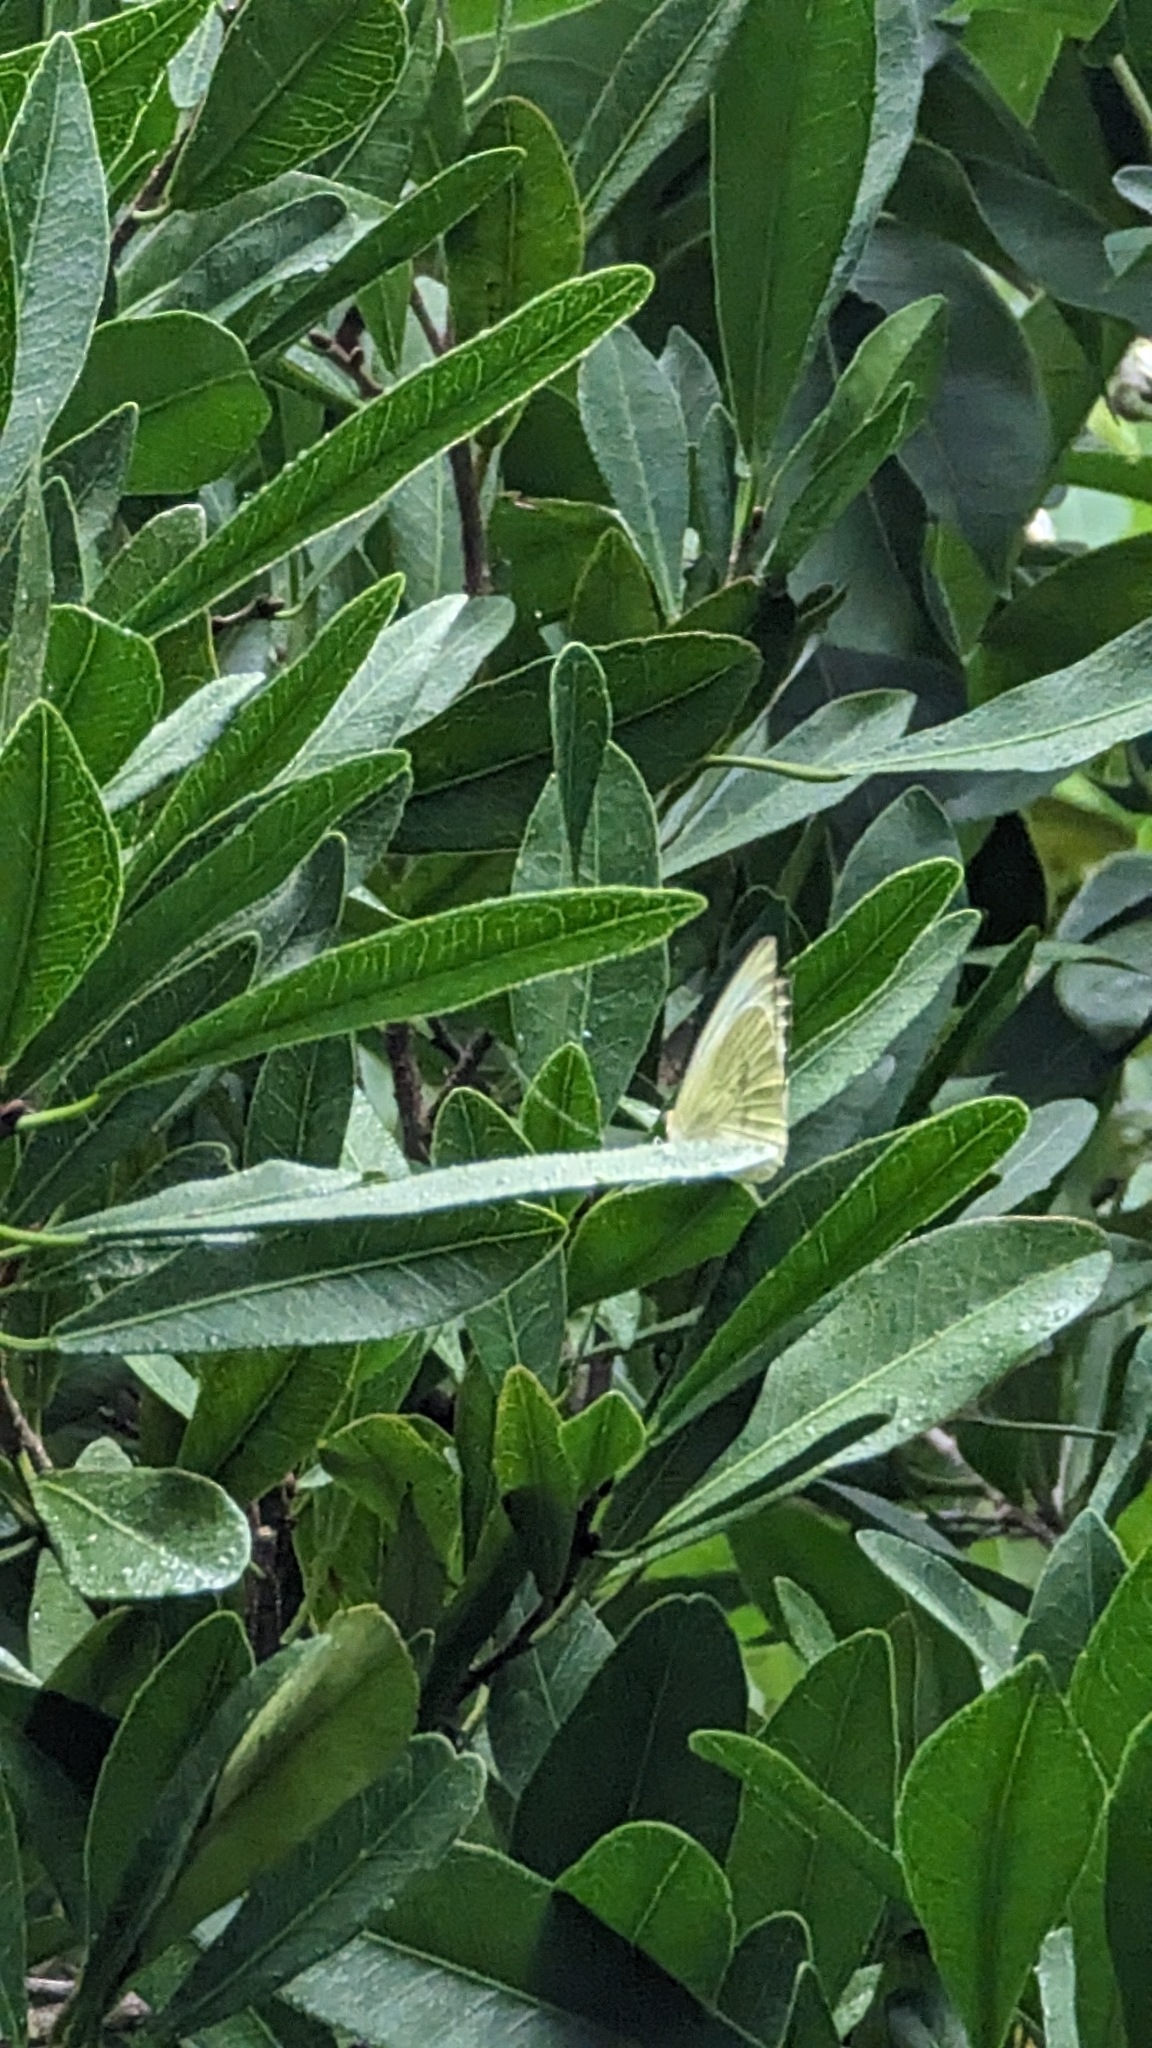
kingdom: Animalia
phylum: Arthropoda
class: Insecta
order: Lepidoptera
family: Pieridae
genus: Ascia
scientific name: Ascia monuste
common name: Great southern white
